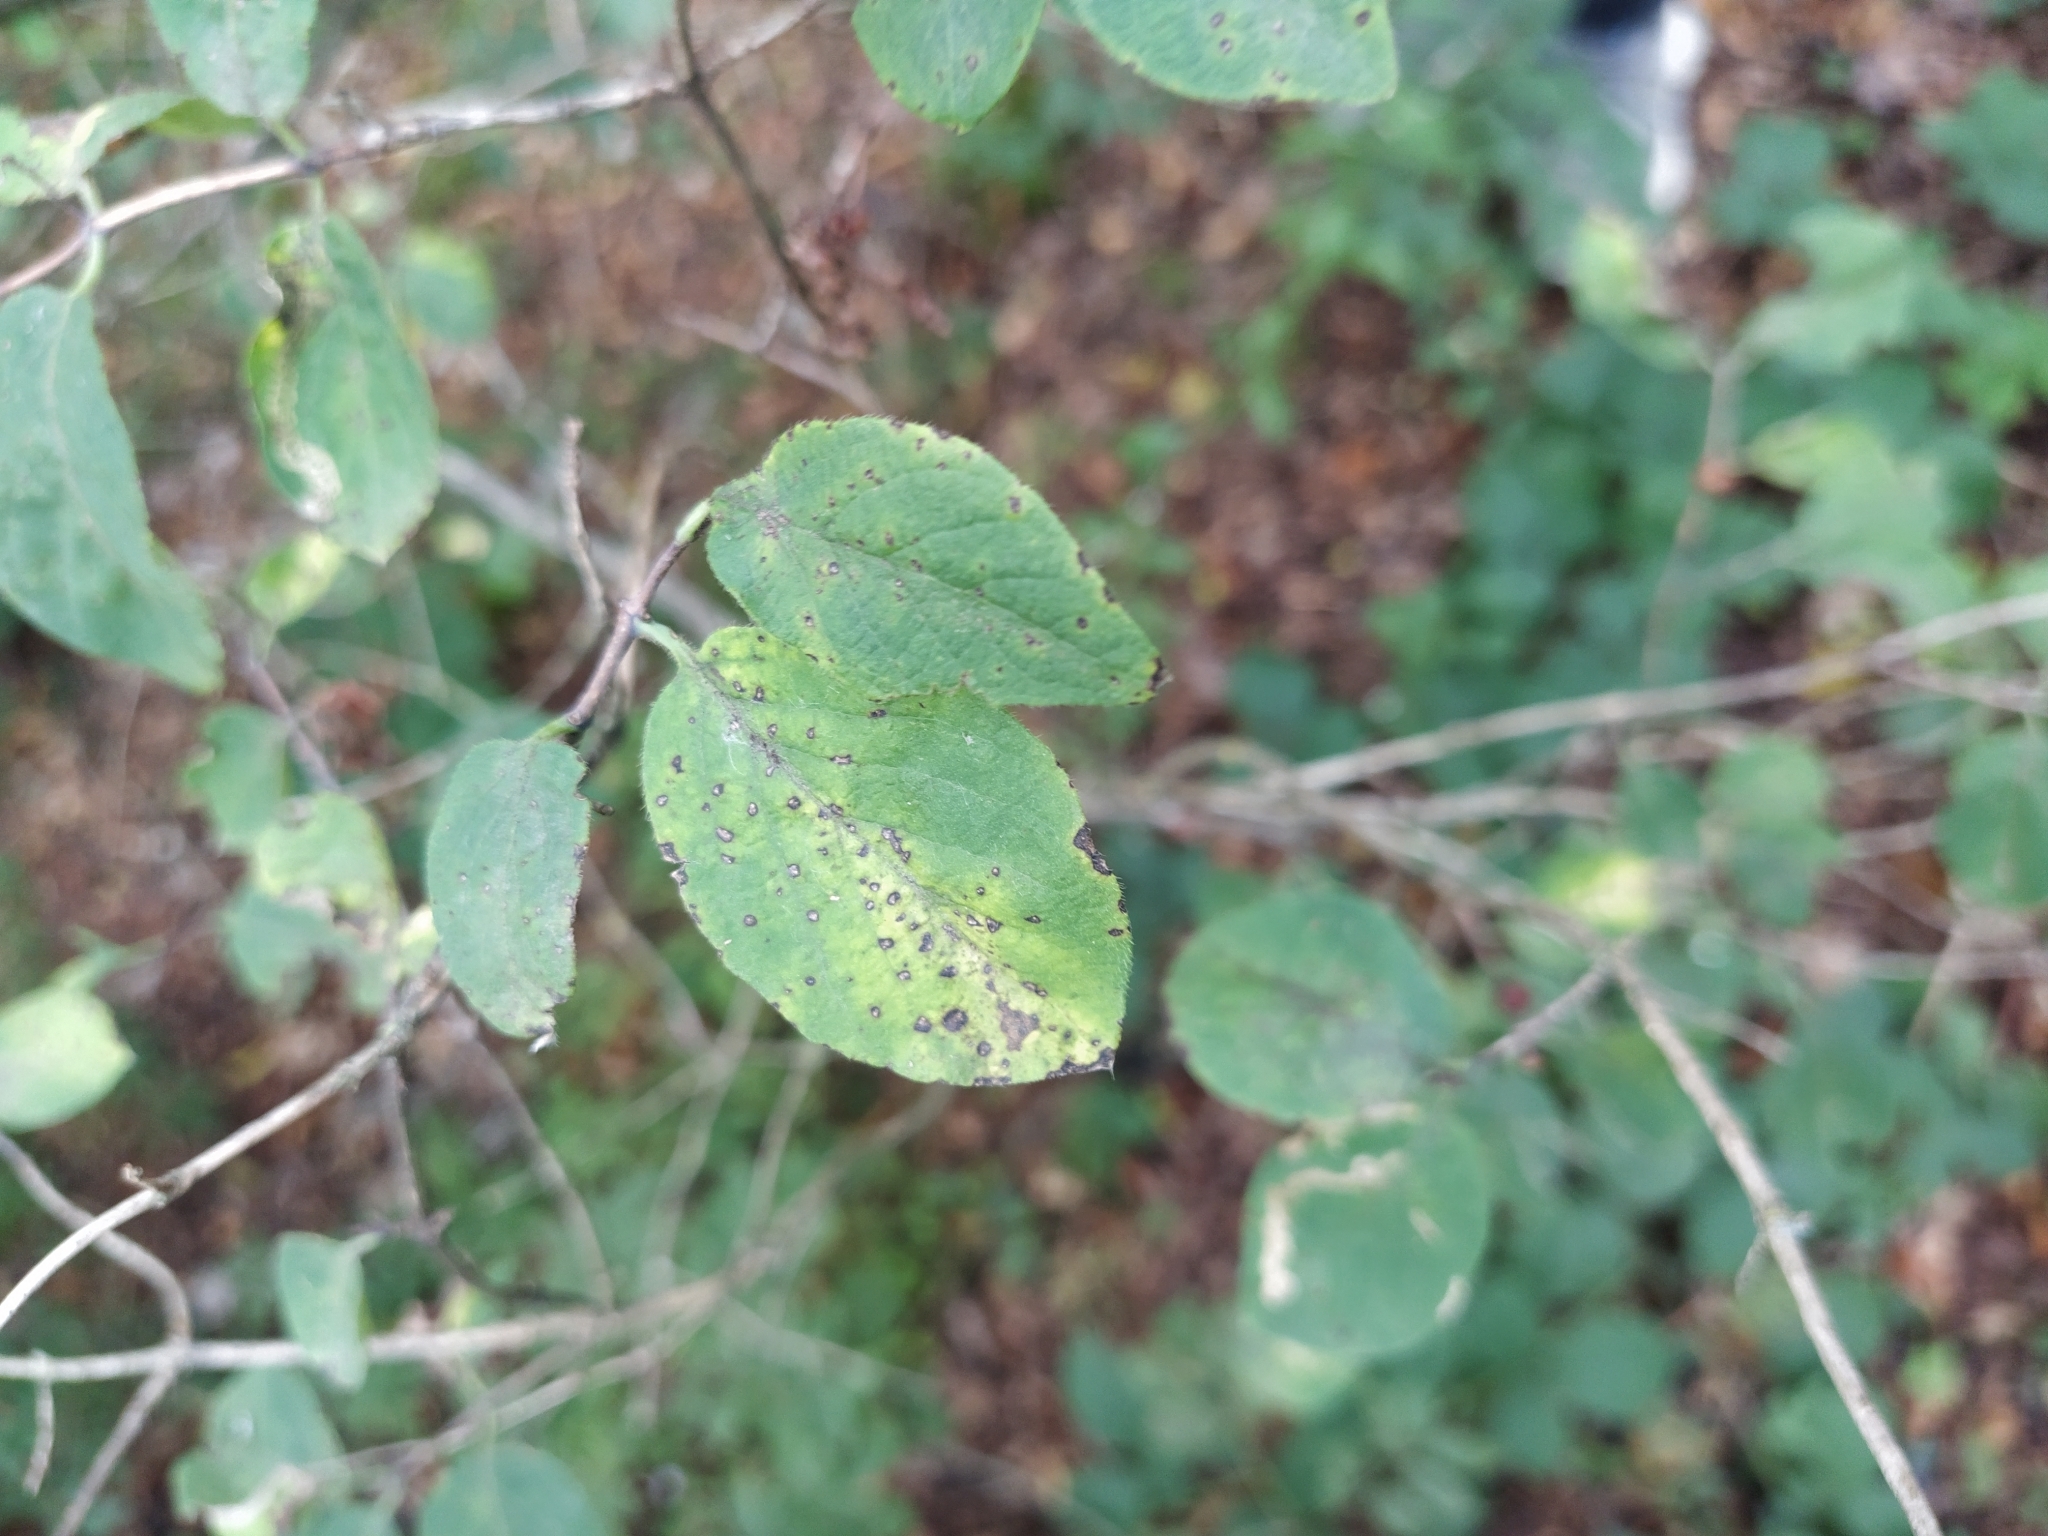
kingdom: Plantae
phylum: Tracheophyta
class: Magnoliopsida
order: Dipsacales
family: Caprifoliaceae
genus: Lonicera
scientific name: Lonicera xylosteum
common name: Fly honeysuckle
